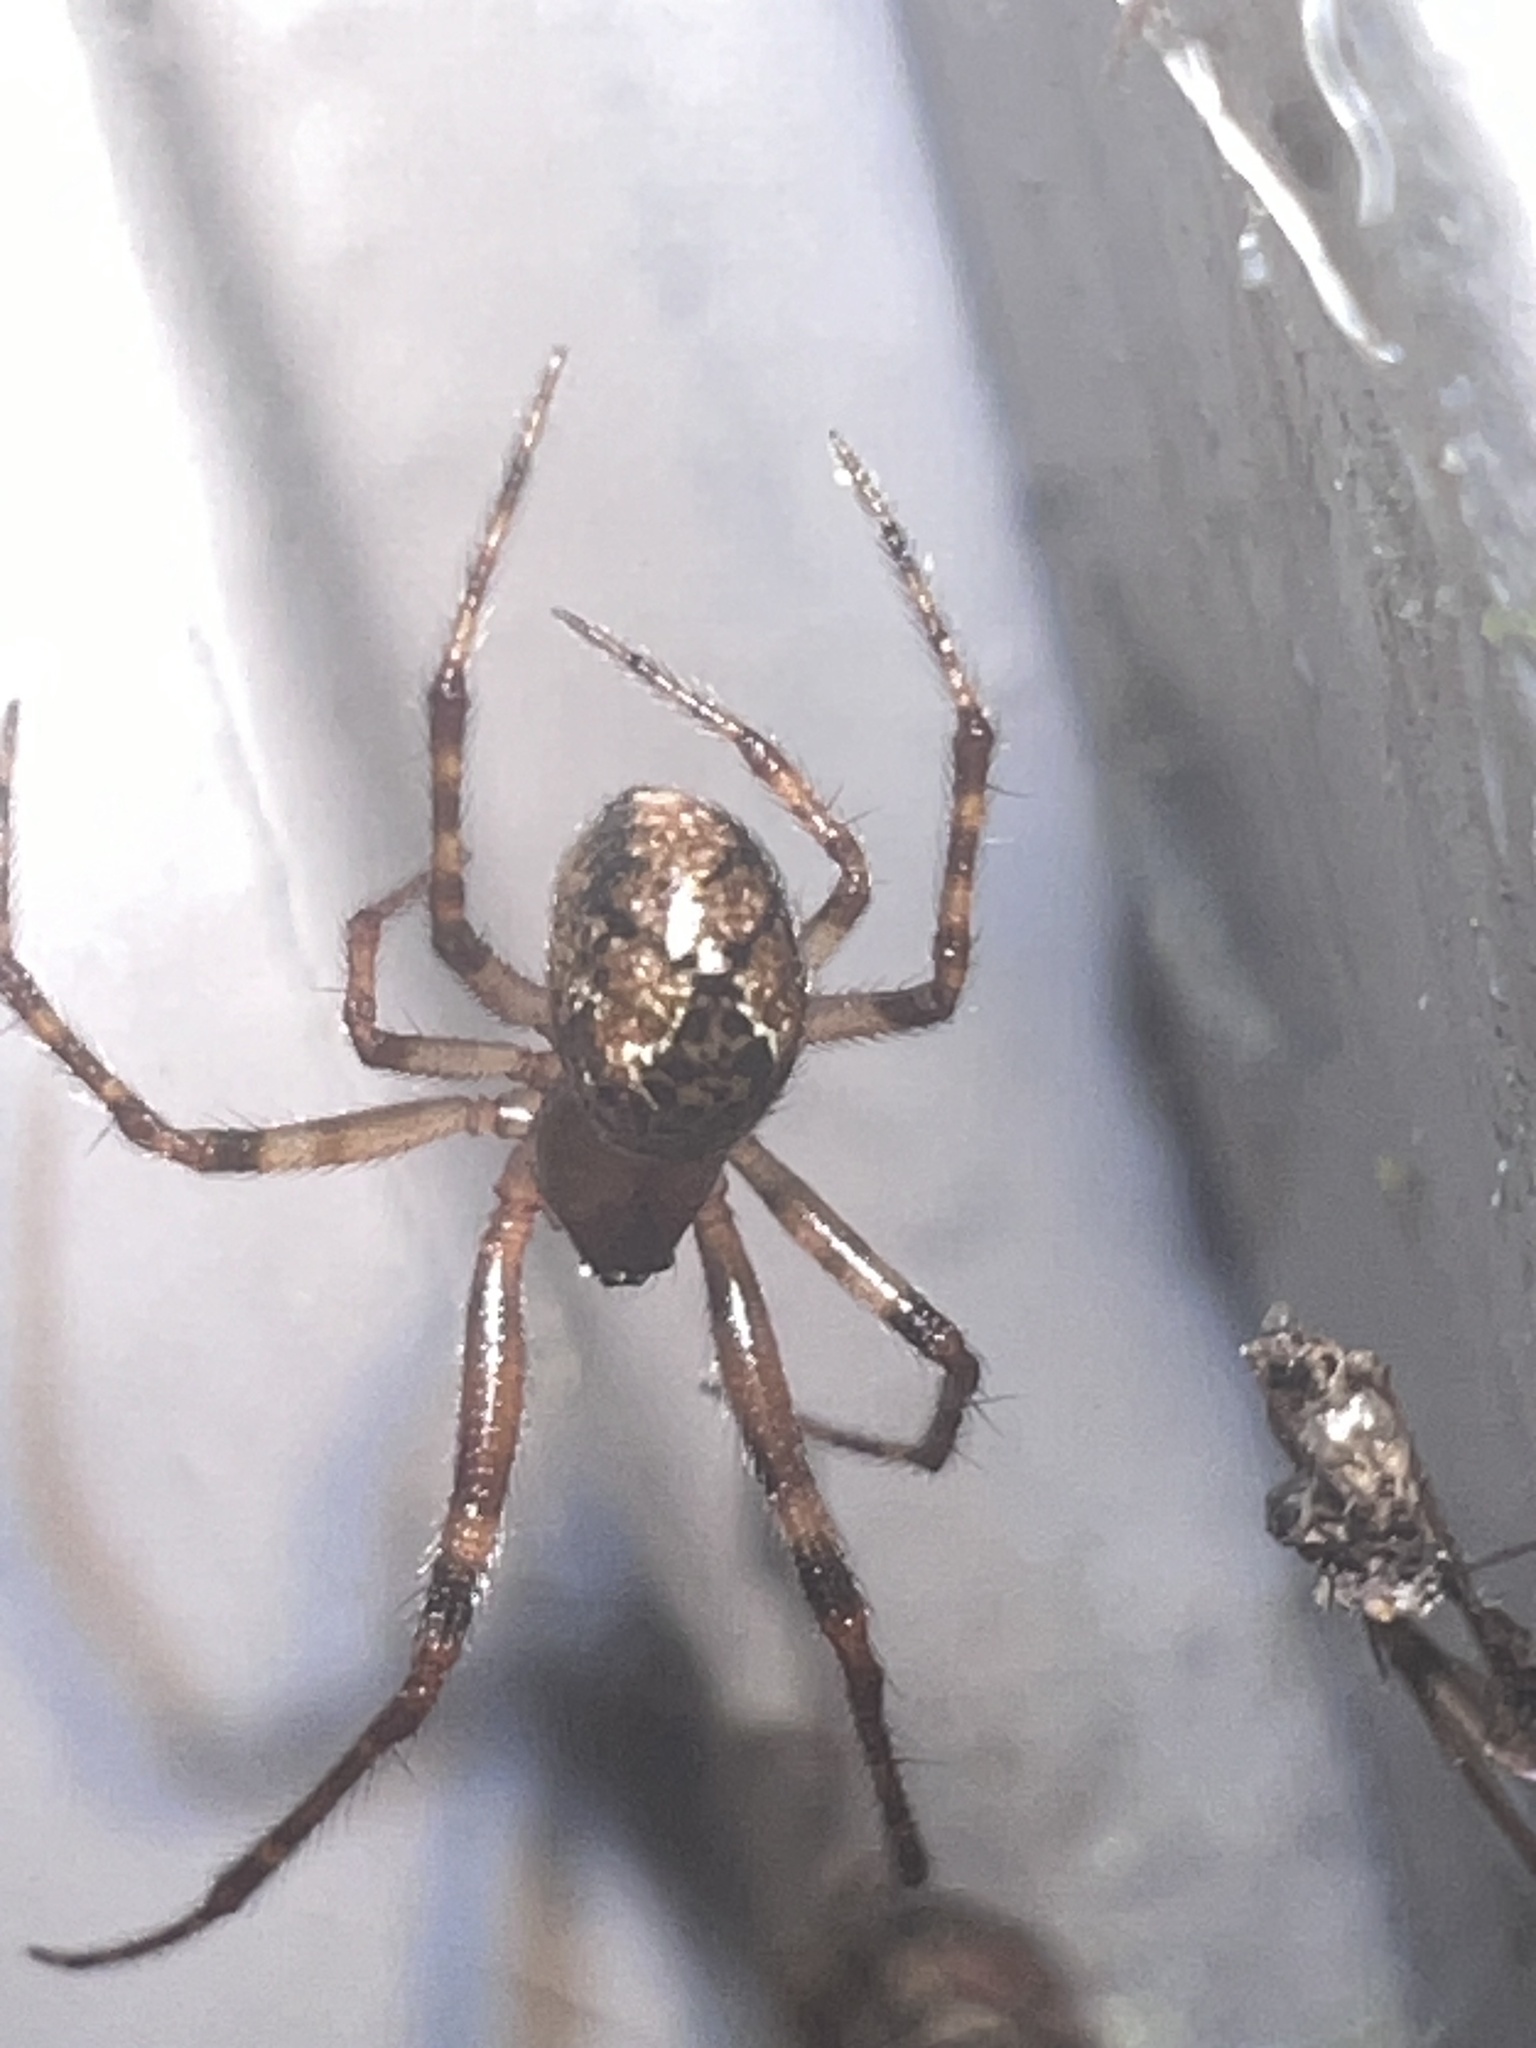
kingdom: Animalia
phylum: Arthropoda
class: Arachnida
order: Araneae
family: Theridiidae
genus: Cryptachaea
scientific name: Cryptachaea veruculata
